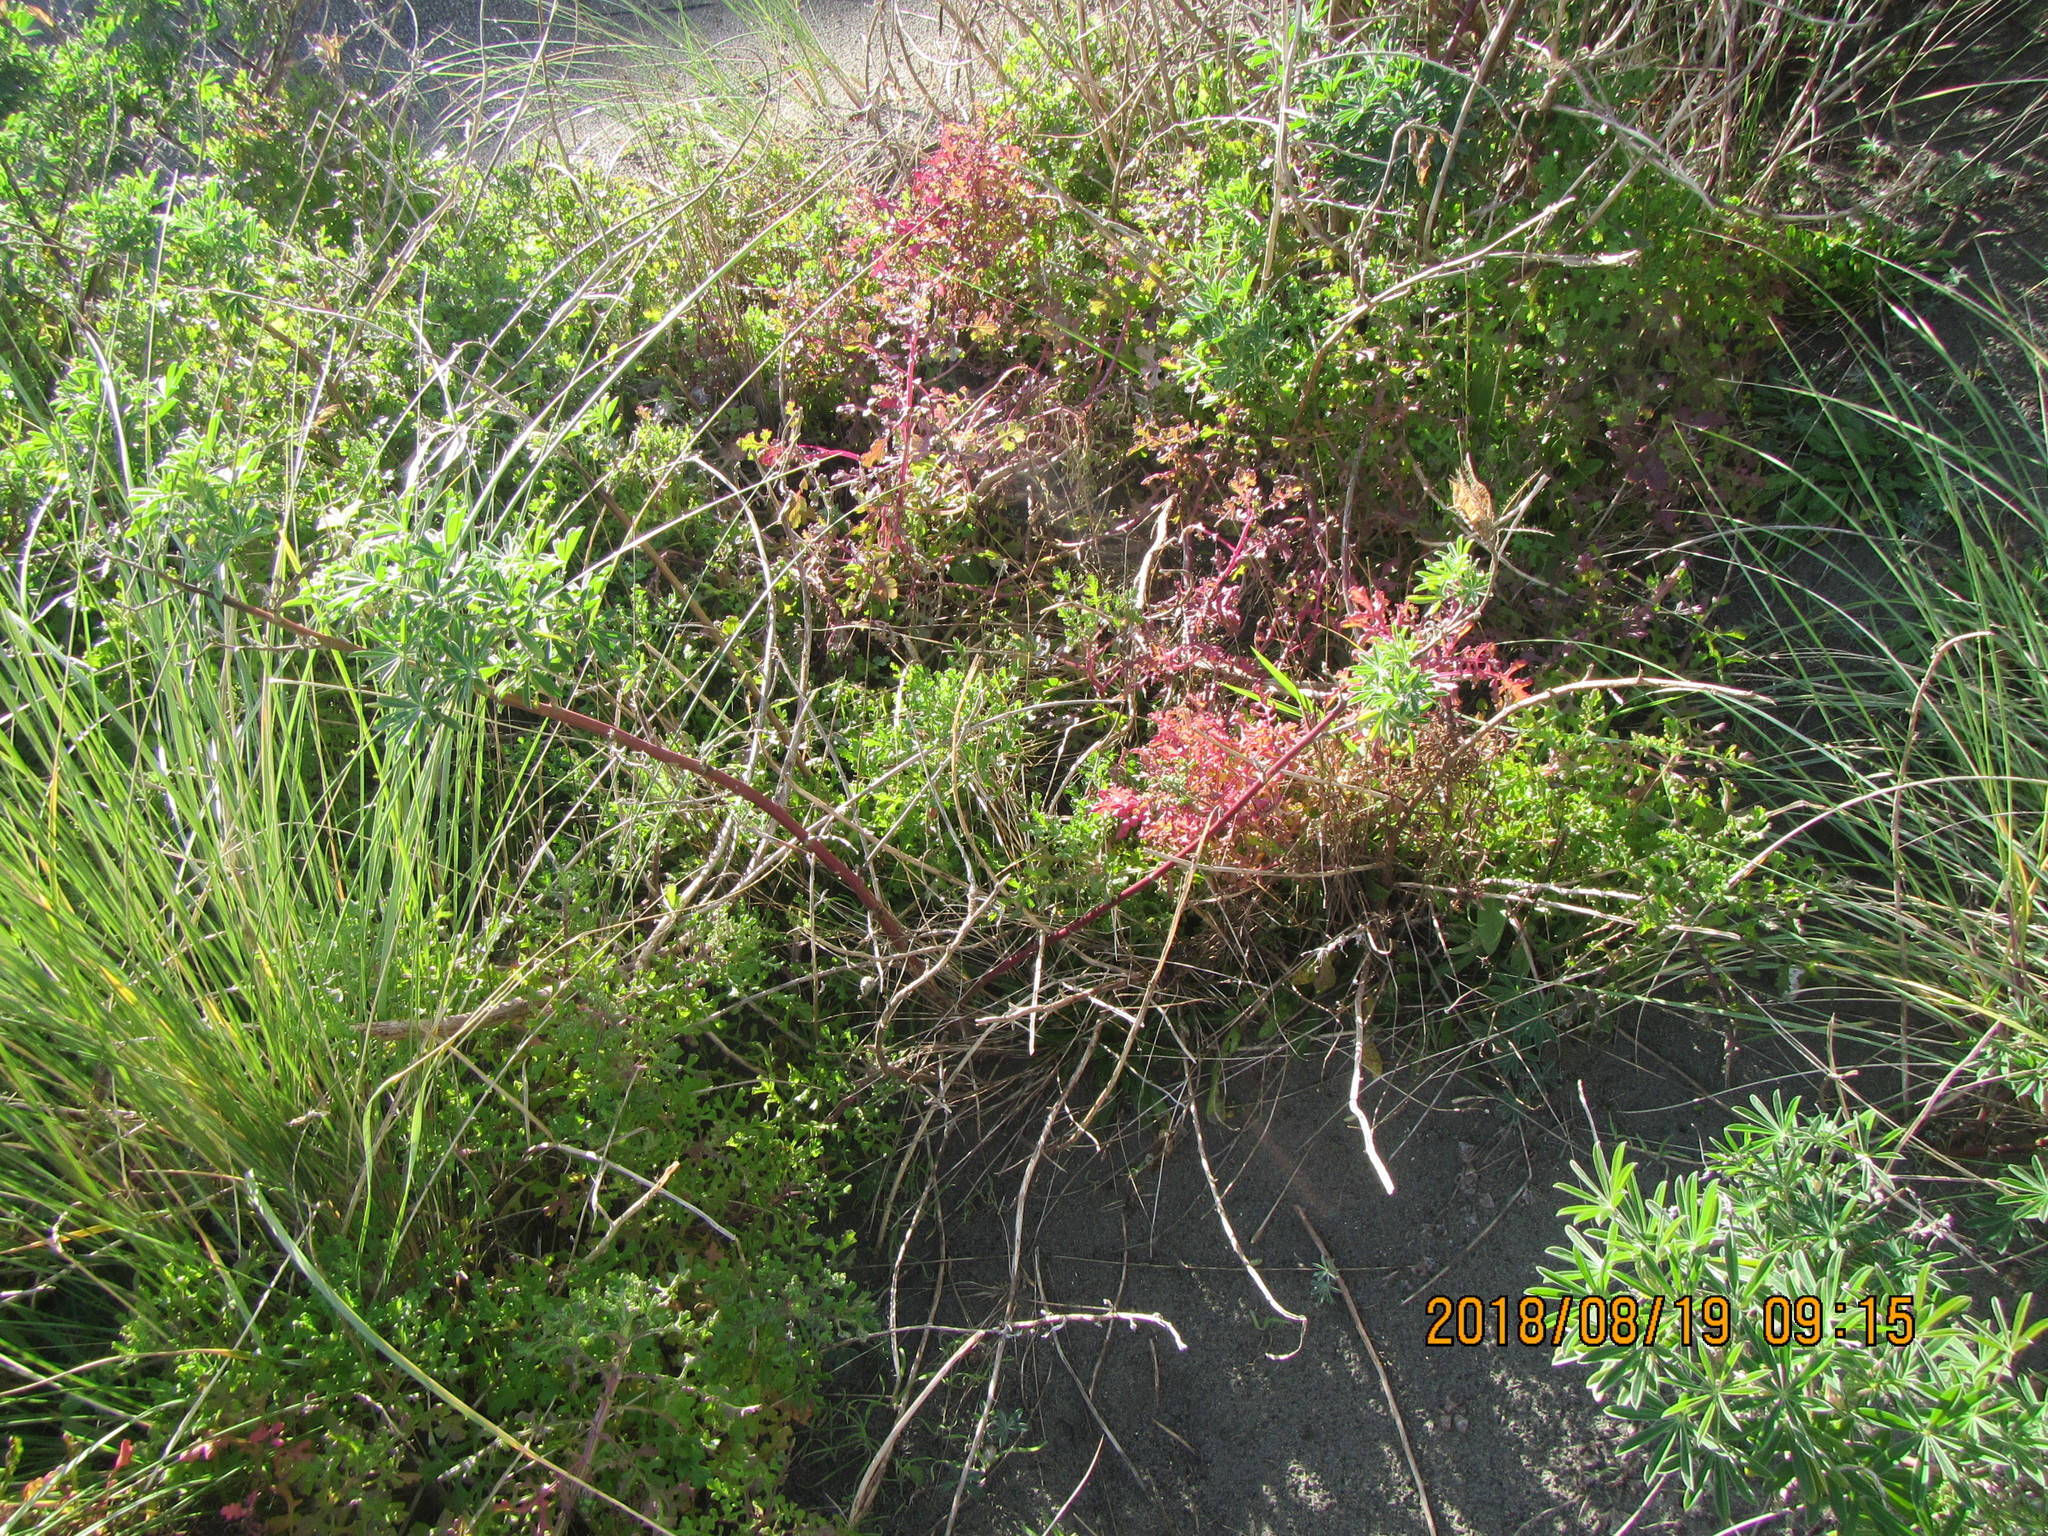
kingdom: Plantae
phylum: Tracheophyta
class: Magnoliopsida
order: Asterales
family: Asteraceae
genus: Senecio
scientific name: Senecio elegans
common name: Purple groundsel
